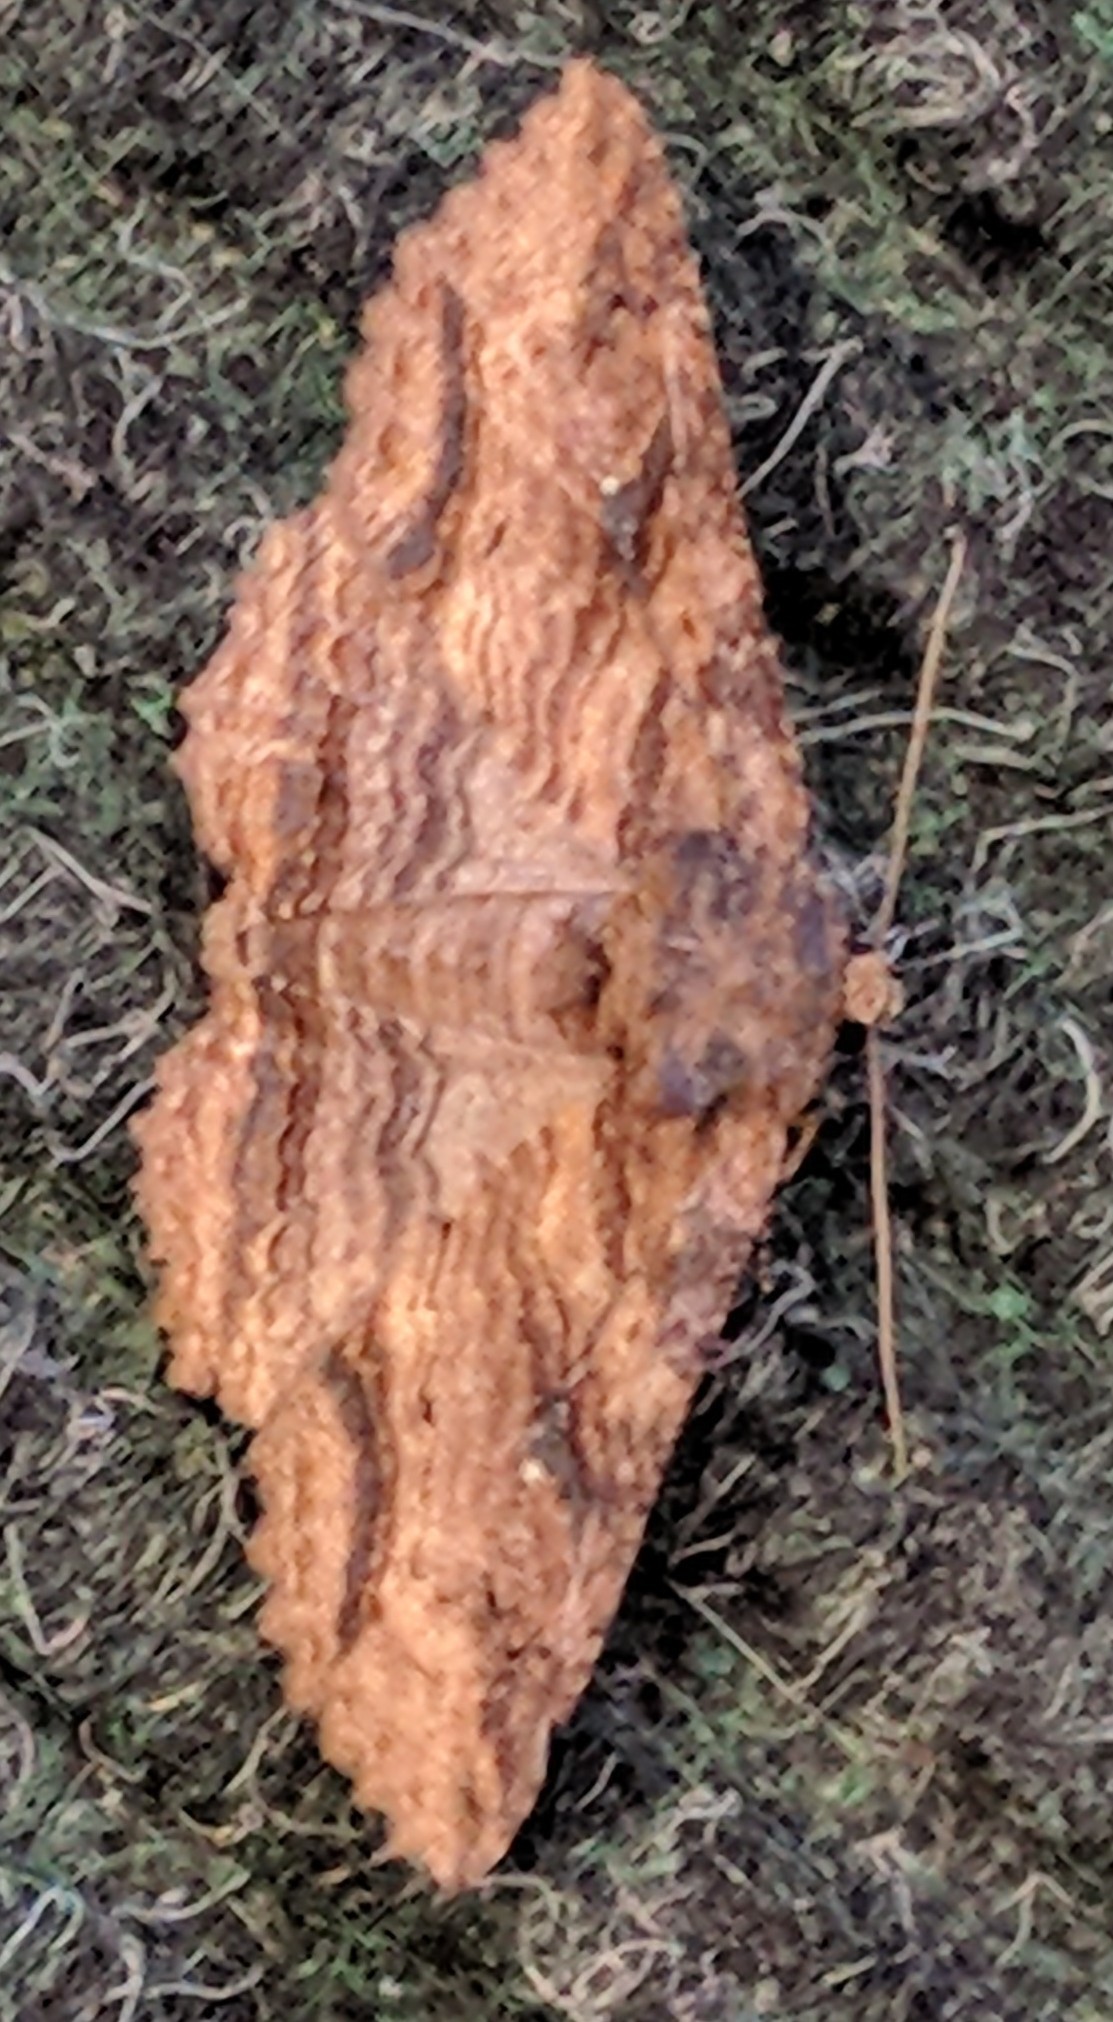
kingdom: Animalia
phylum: Arthropoda
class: Insecta
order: Lepidoptera
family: Erebidae
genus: Zale
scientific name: Zale lunata
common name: Lunate zale moth
